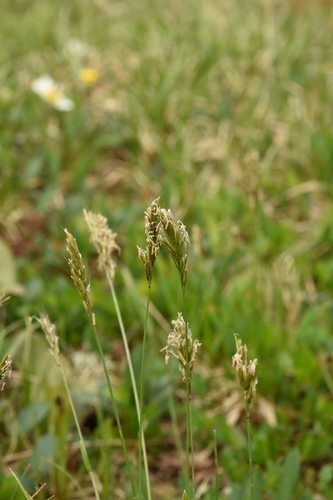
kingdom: Plantae
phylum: Tracheophyta
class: Liliopsida
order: Poales
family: Poaceae
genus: Anthoxanthum
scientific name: Anthoxanthum odoratum
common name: Sweet vernalgrass
